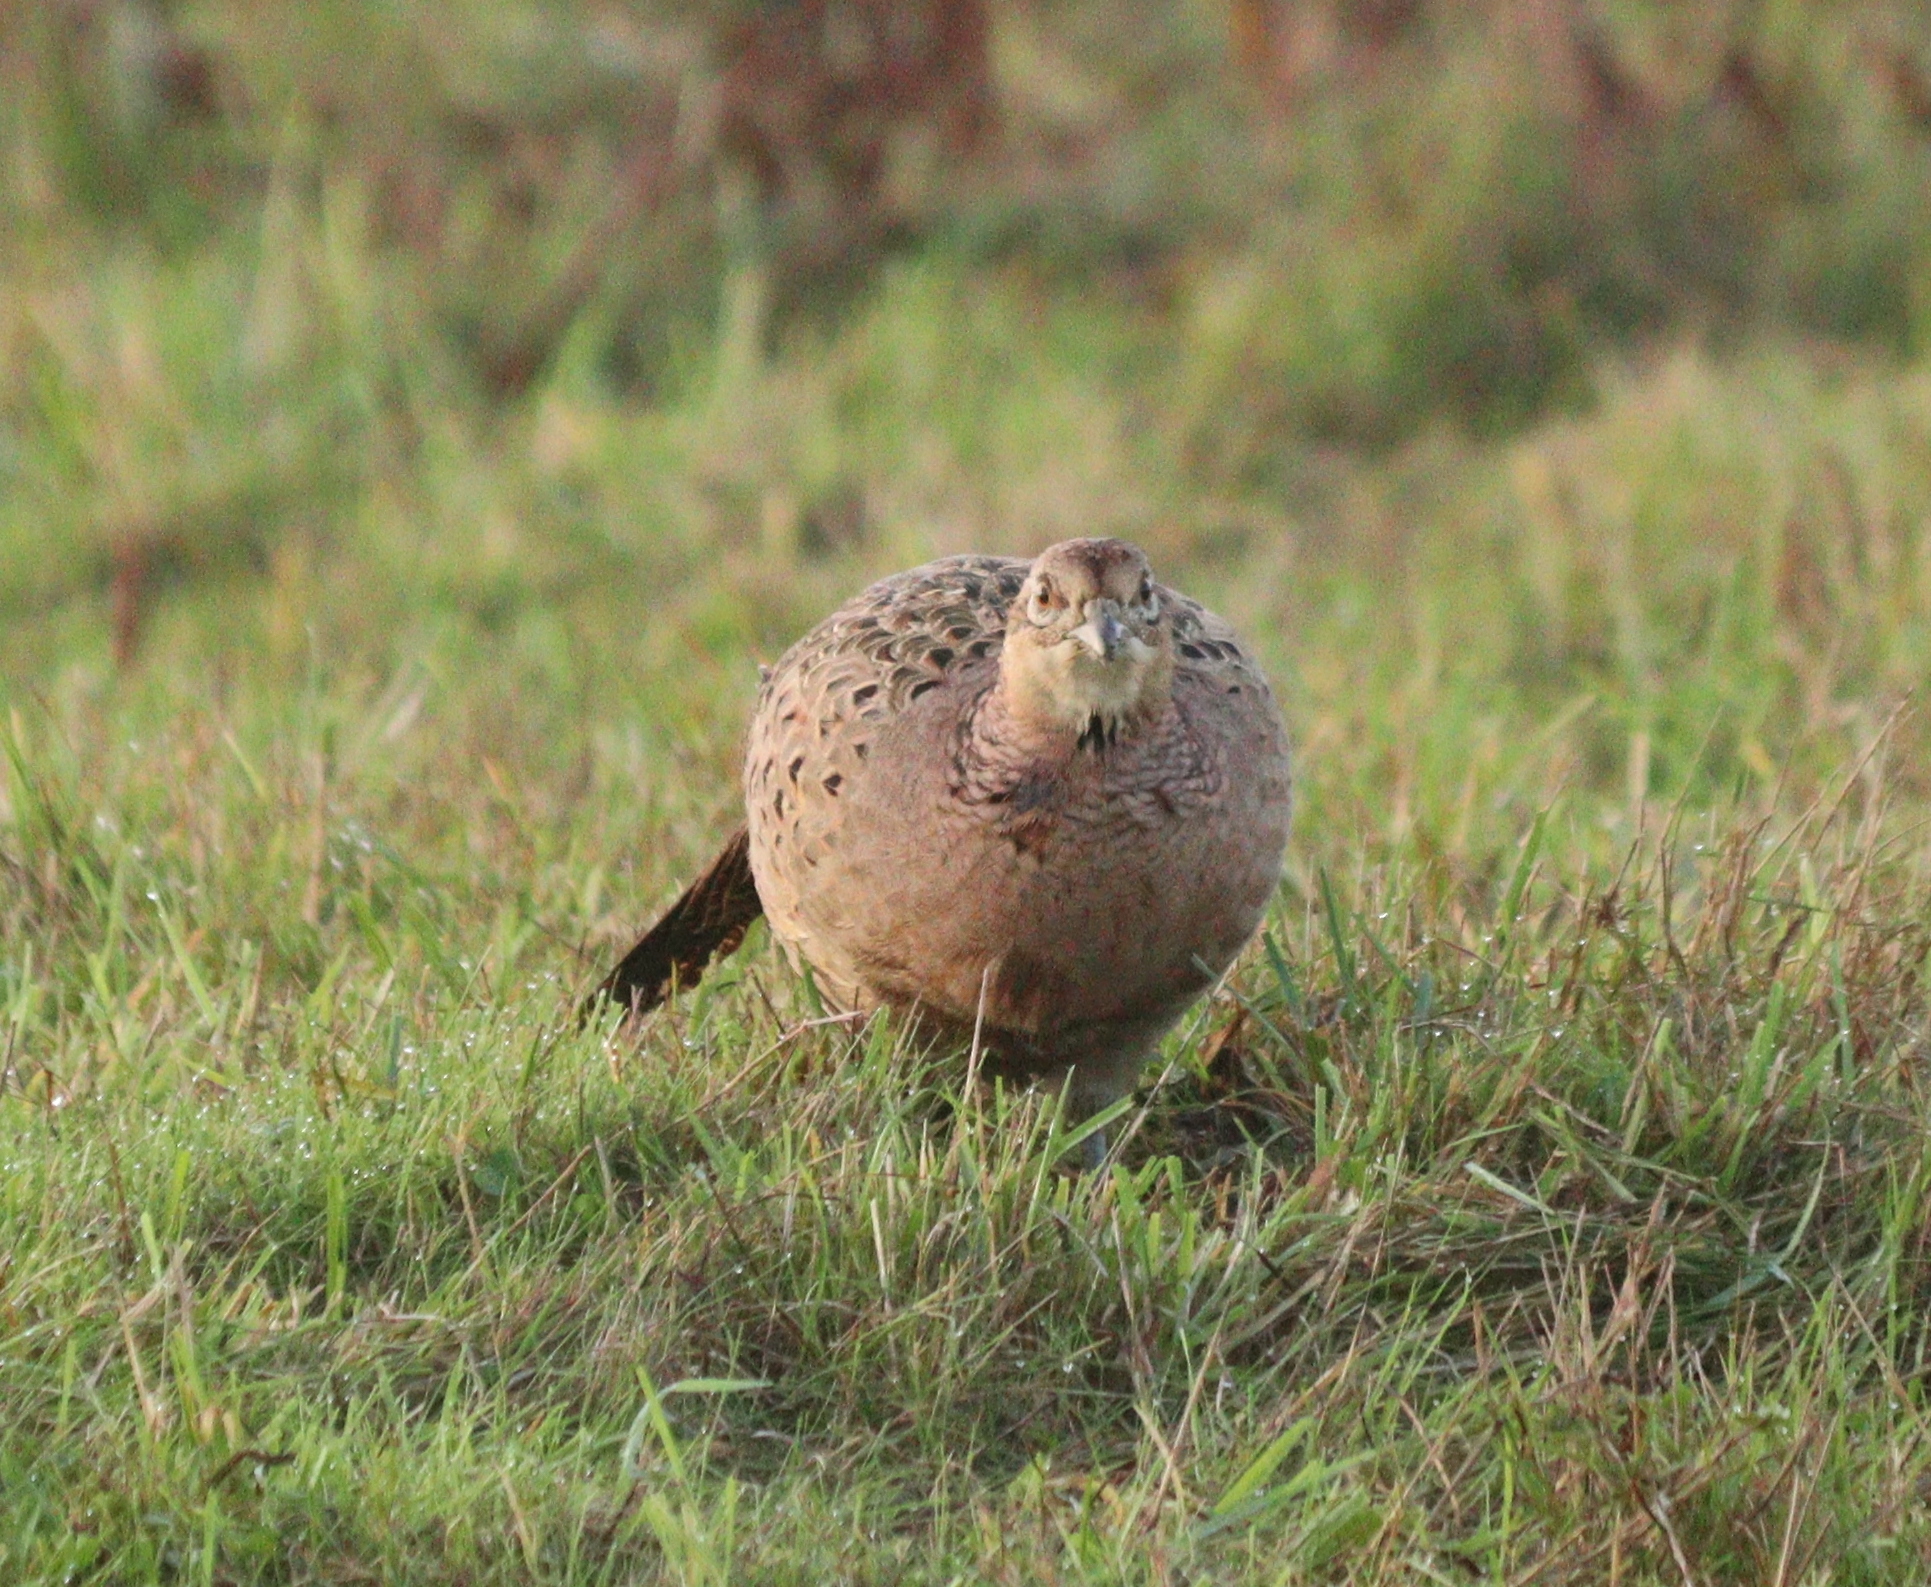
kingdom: Animalia
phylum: Chordata
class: Aves
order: Galliformes
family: Phasianidae
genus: Phasianus
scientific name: Phasianus colchicus
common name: Common pheasant
